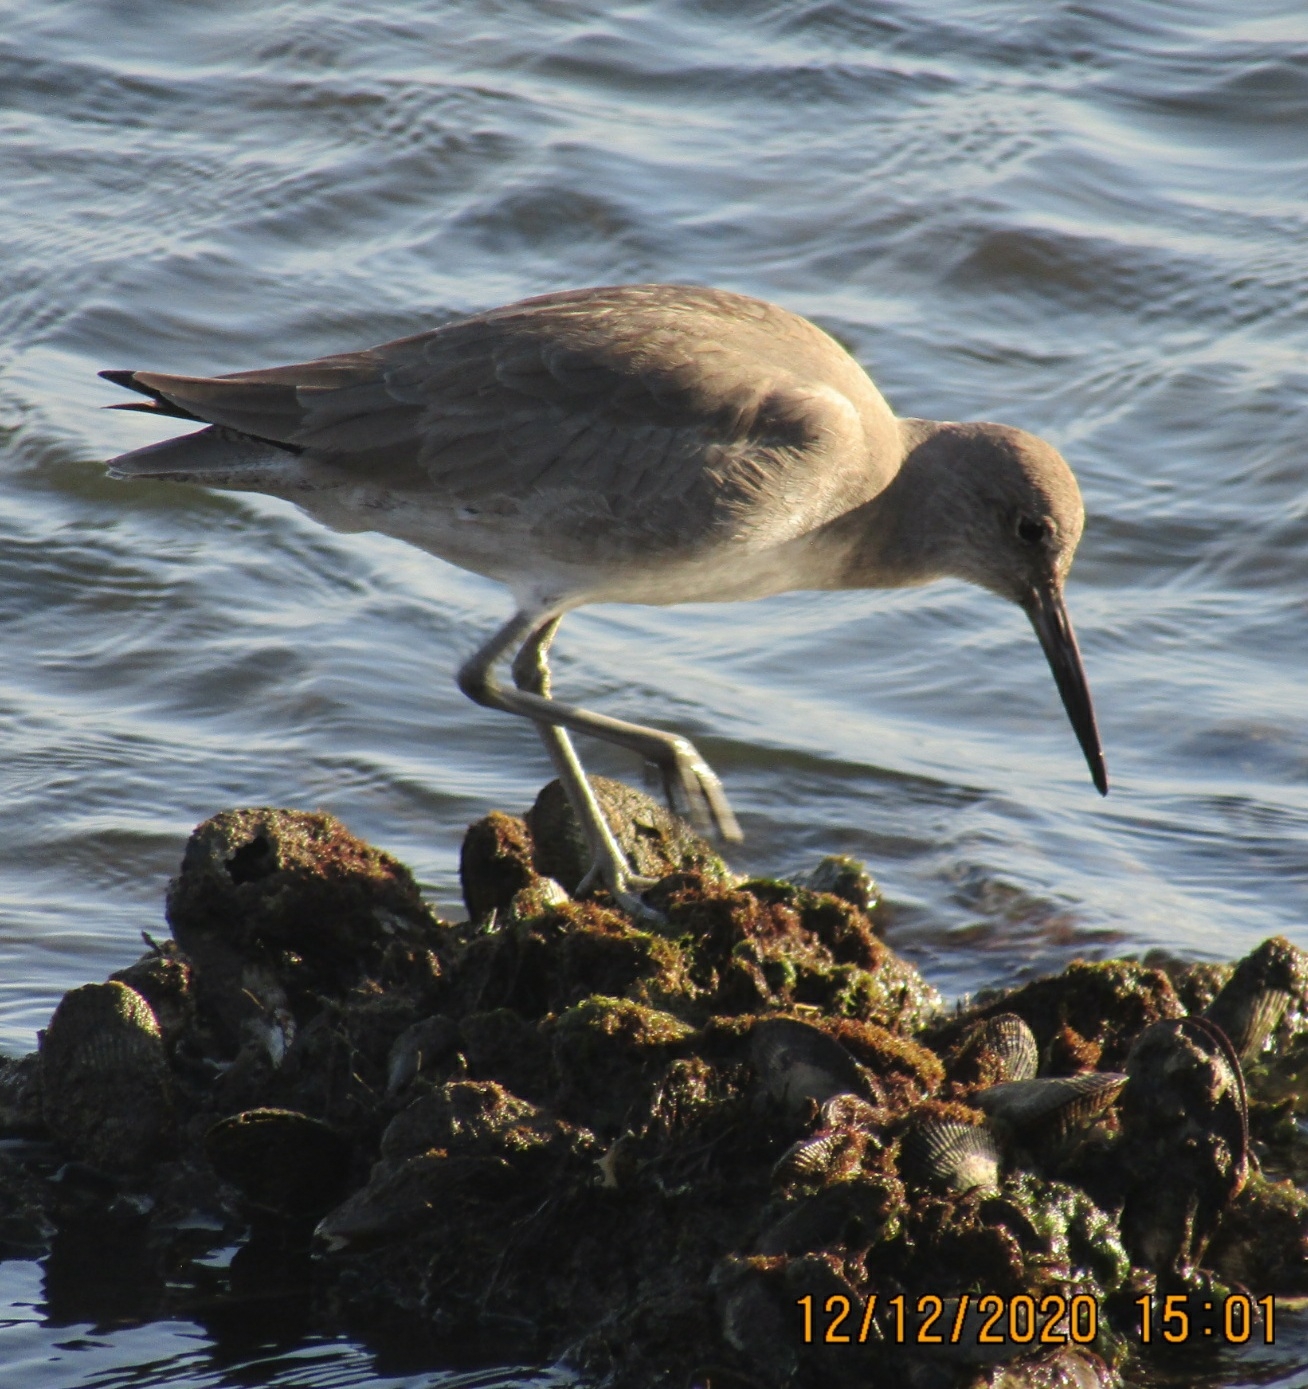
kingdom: Animalia
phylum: Chordata
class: Aves
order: Charadriiformes
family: Scolopacidae
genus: Tringa
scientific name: Tringa semipalmata
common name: Willet
